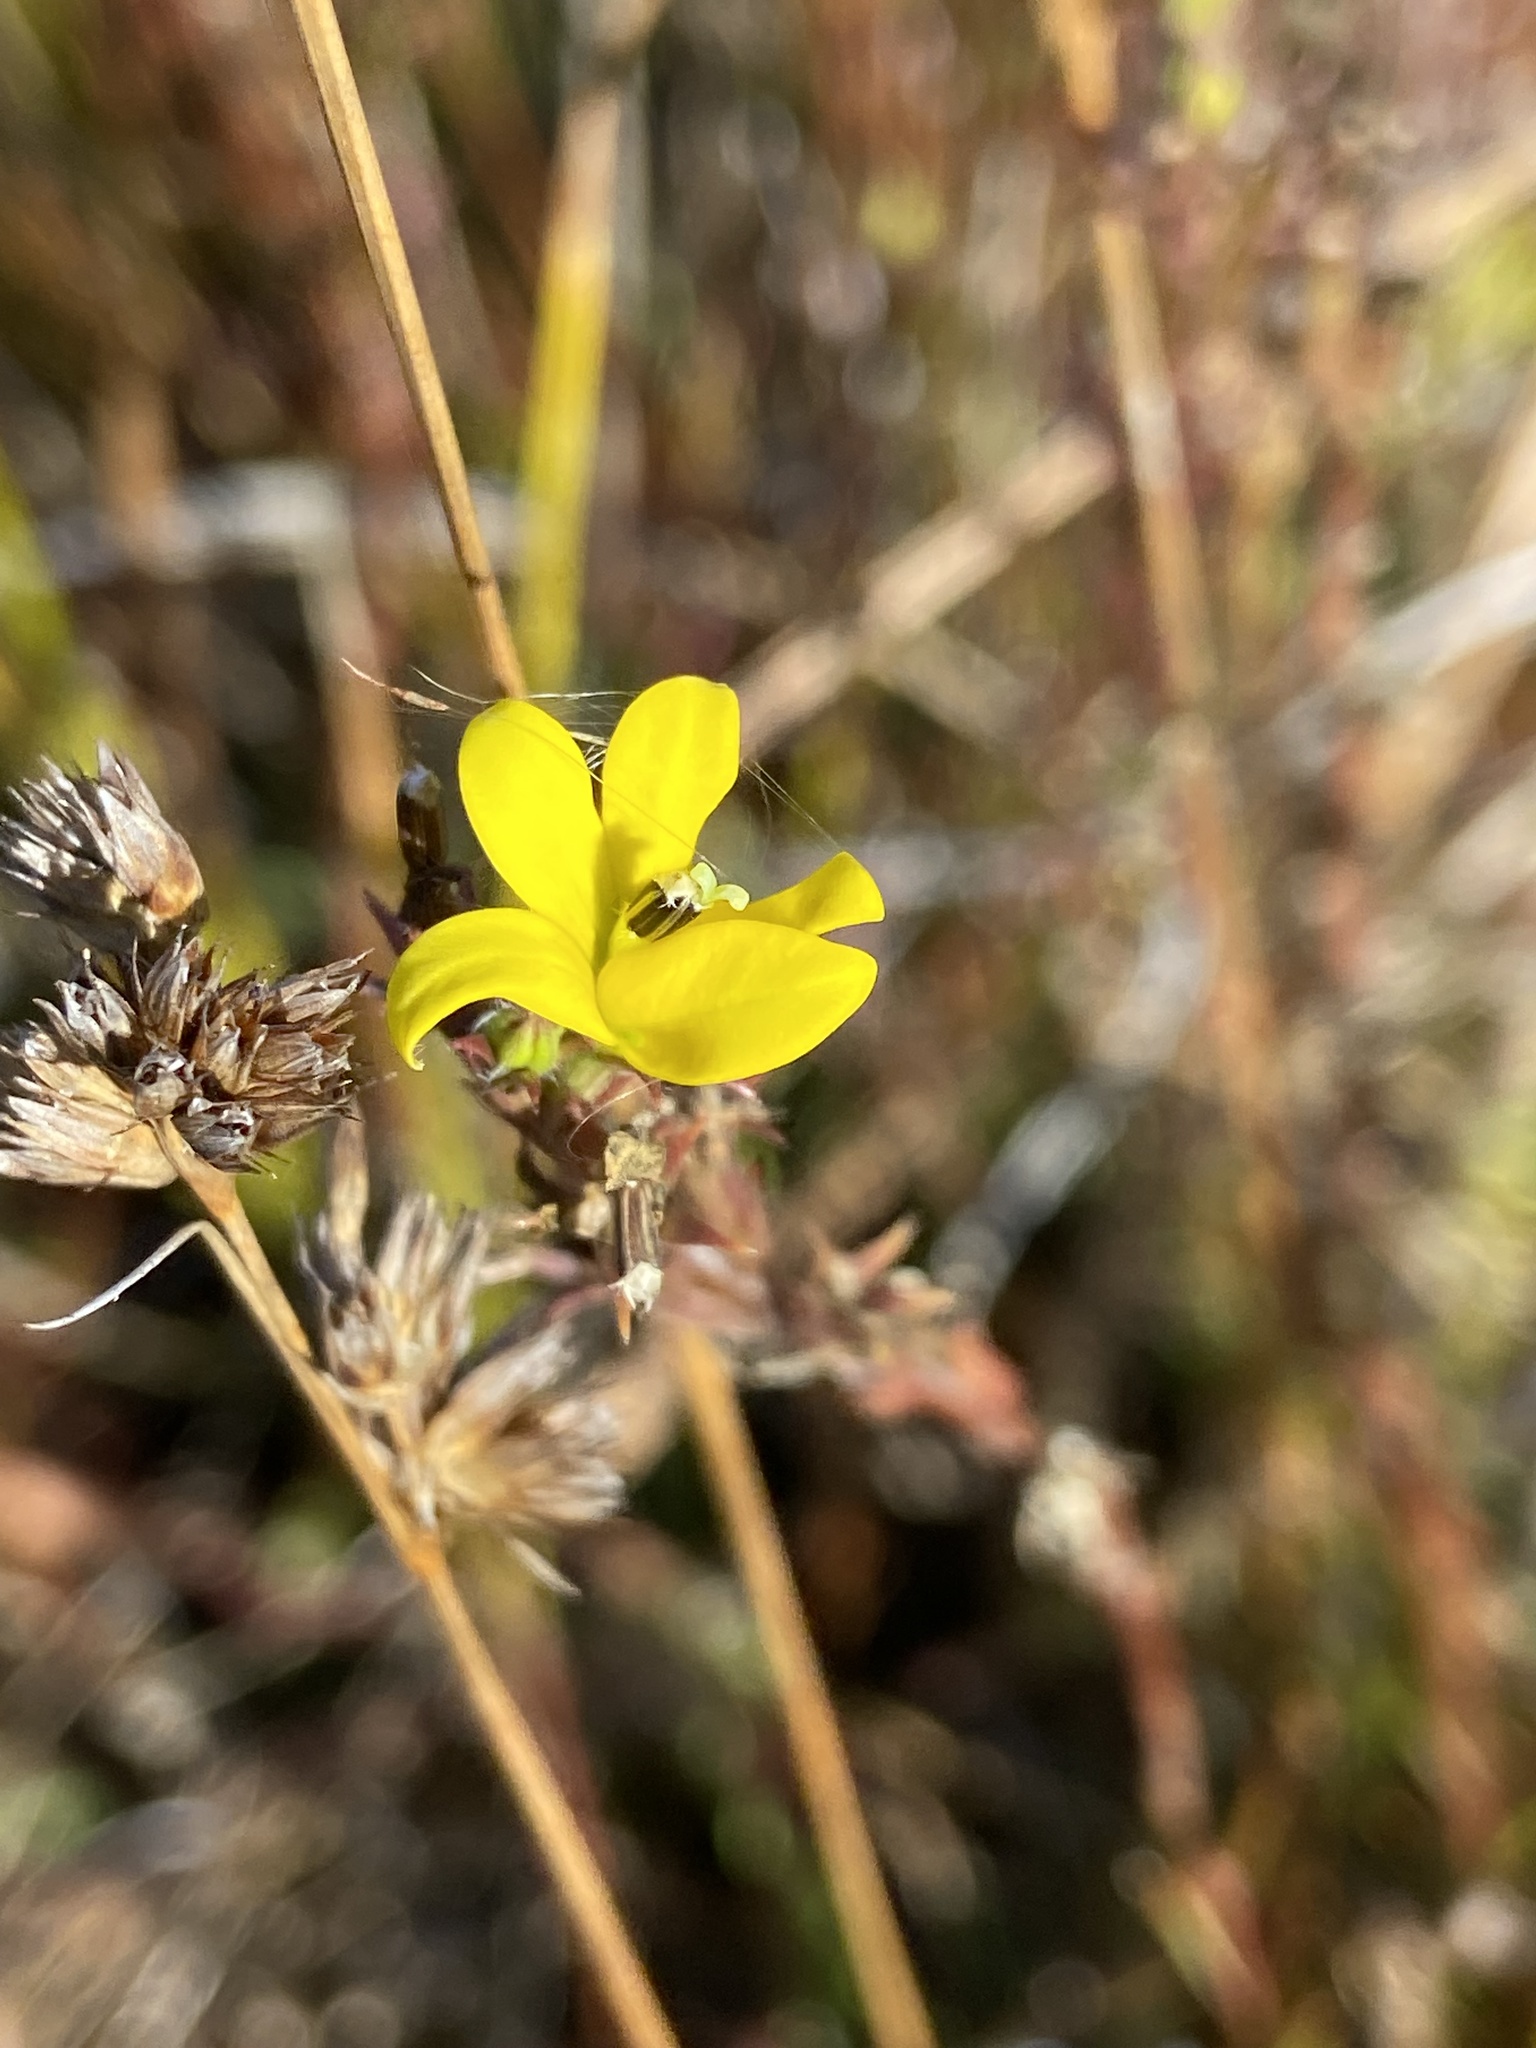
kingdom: Plantae
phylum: Tracheophyta
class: Magnoliopsida
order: Asterales
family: Campanulaceae
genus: Monopsis
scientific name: Monopsis lutea
